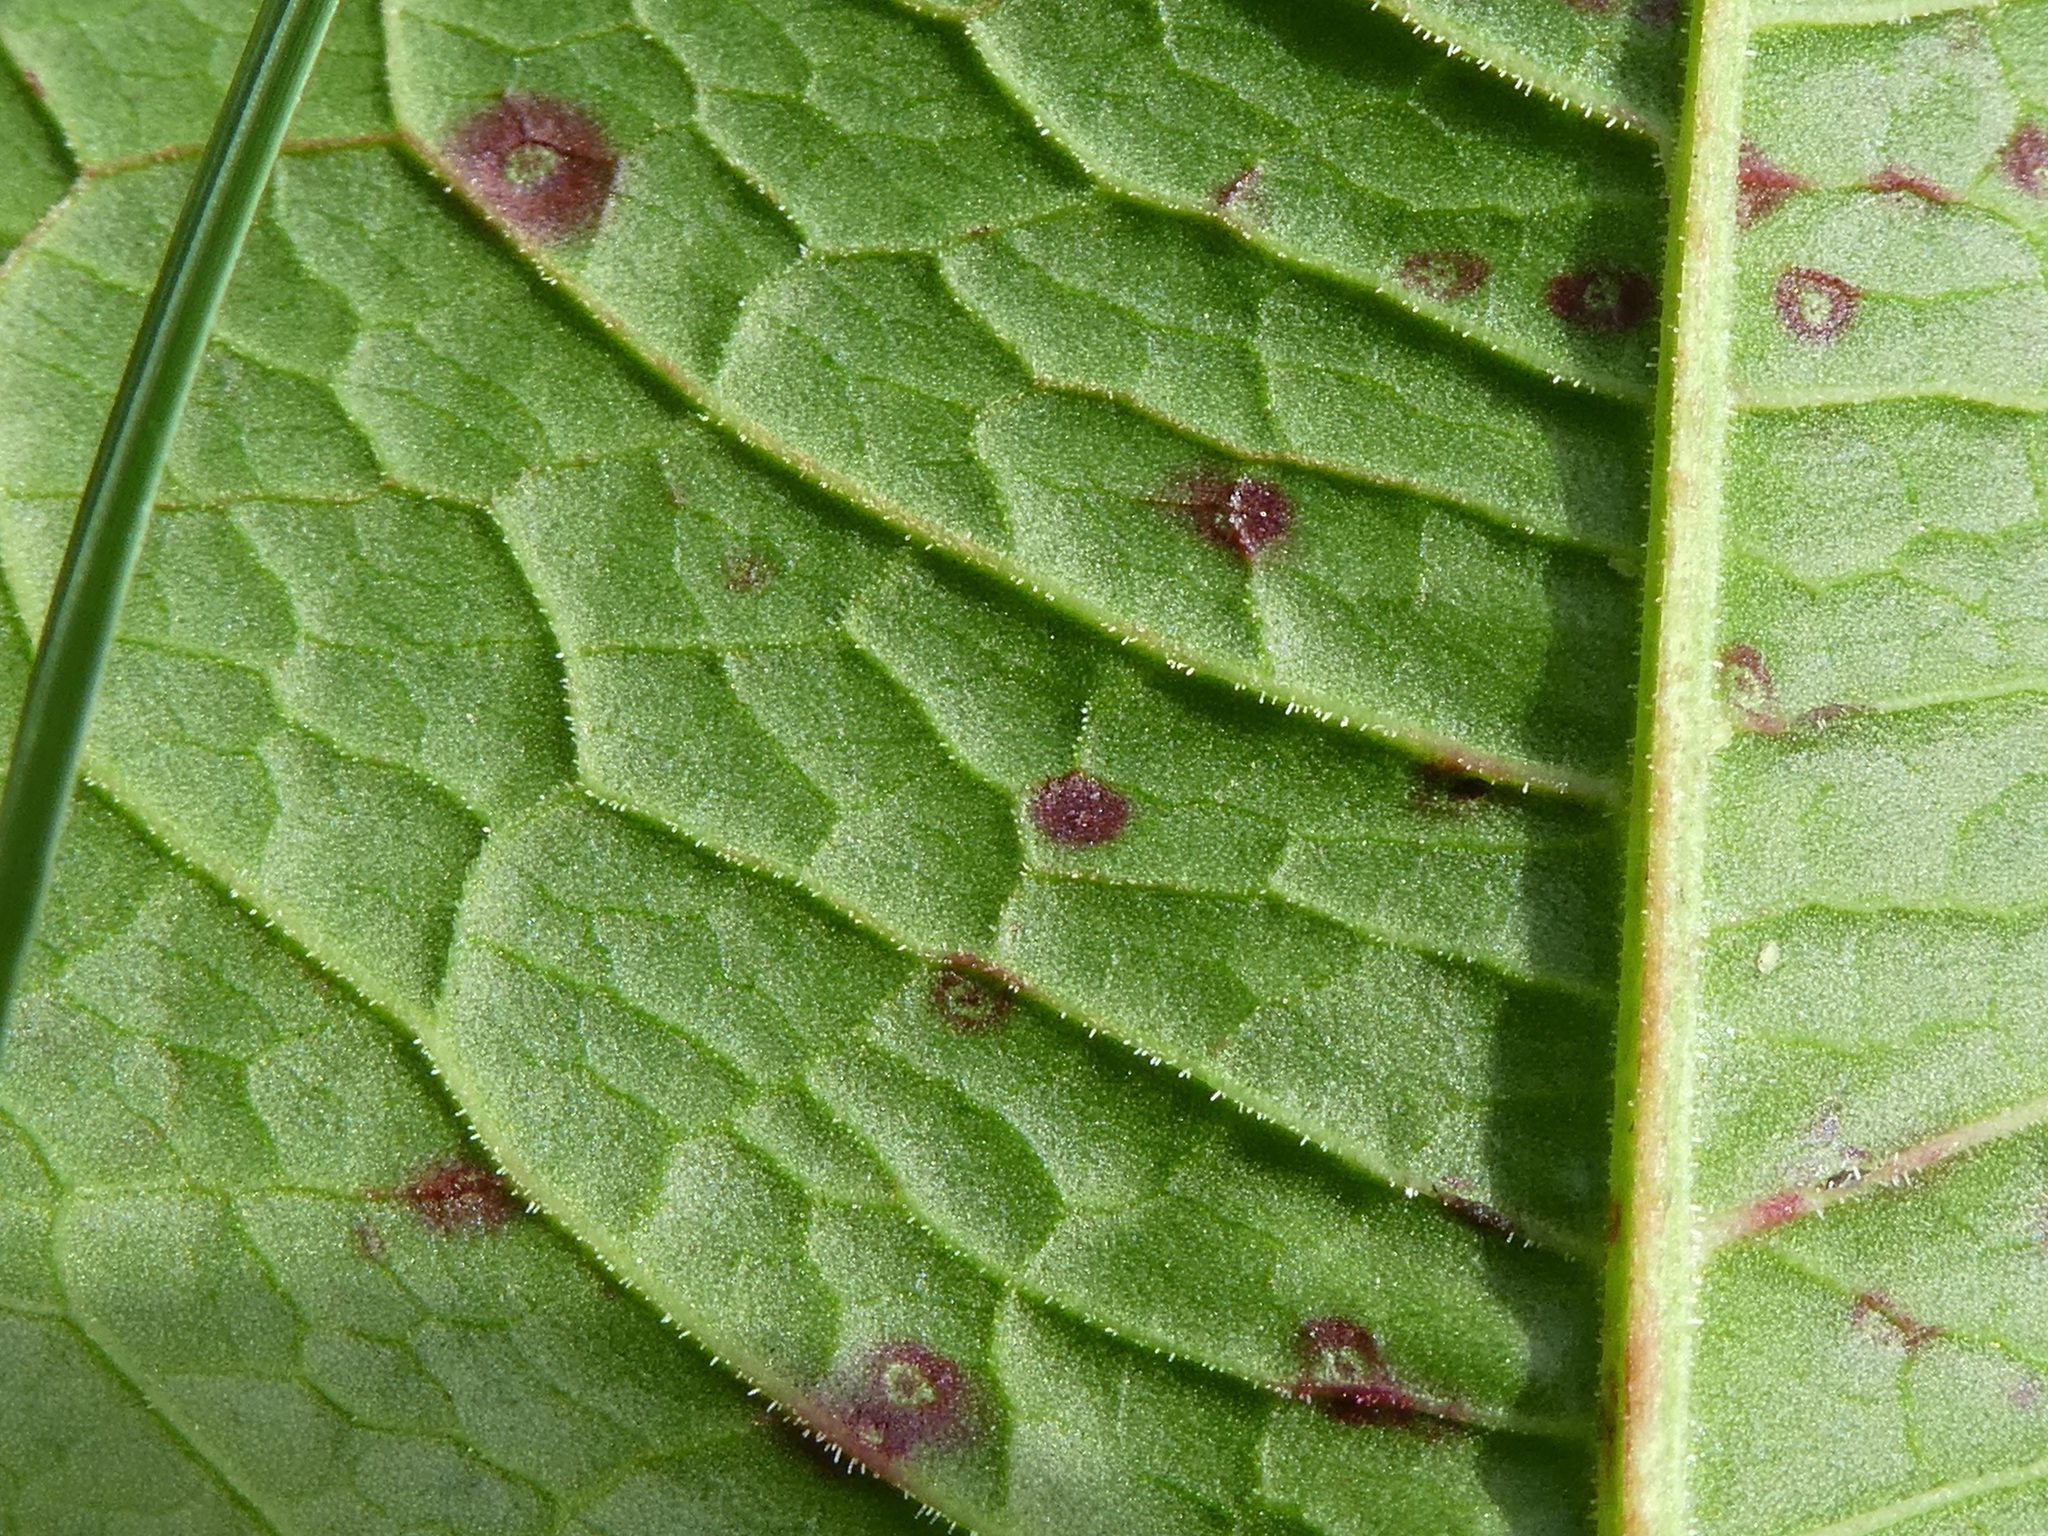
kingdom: Fungi
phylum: Ascomycota
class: Dothideomycetes
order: Mycosphaerellales
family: Mycosphaerellaceae
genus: Ramularia
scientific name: Ramularia rubella
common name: Red dock spot
